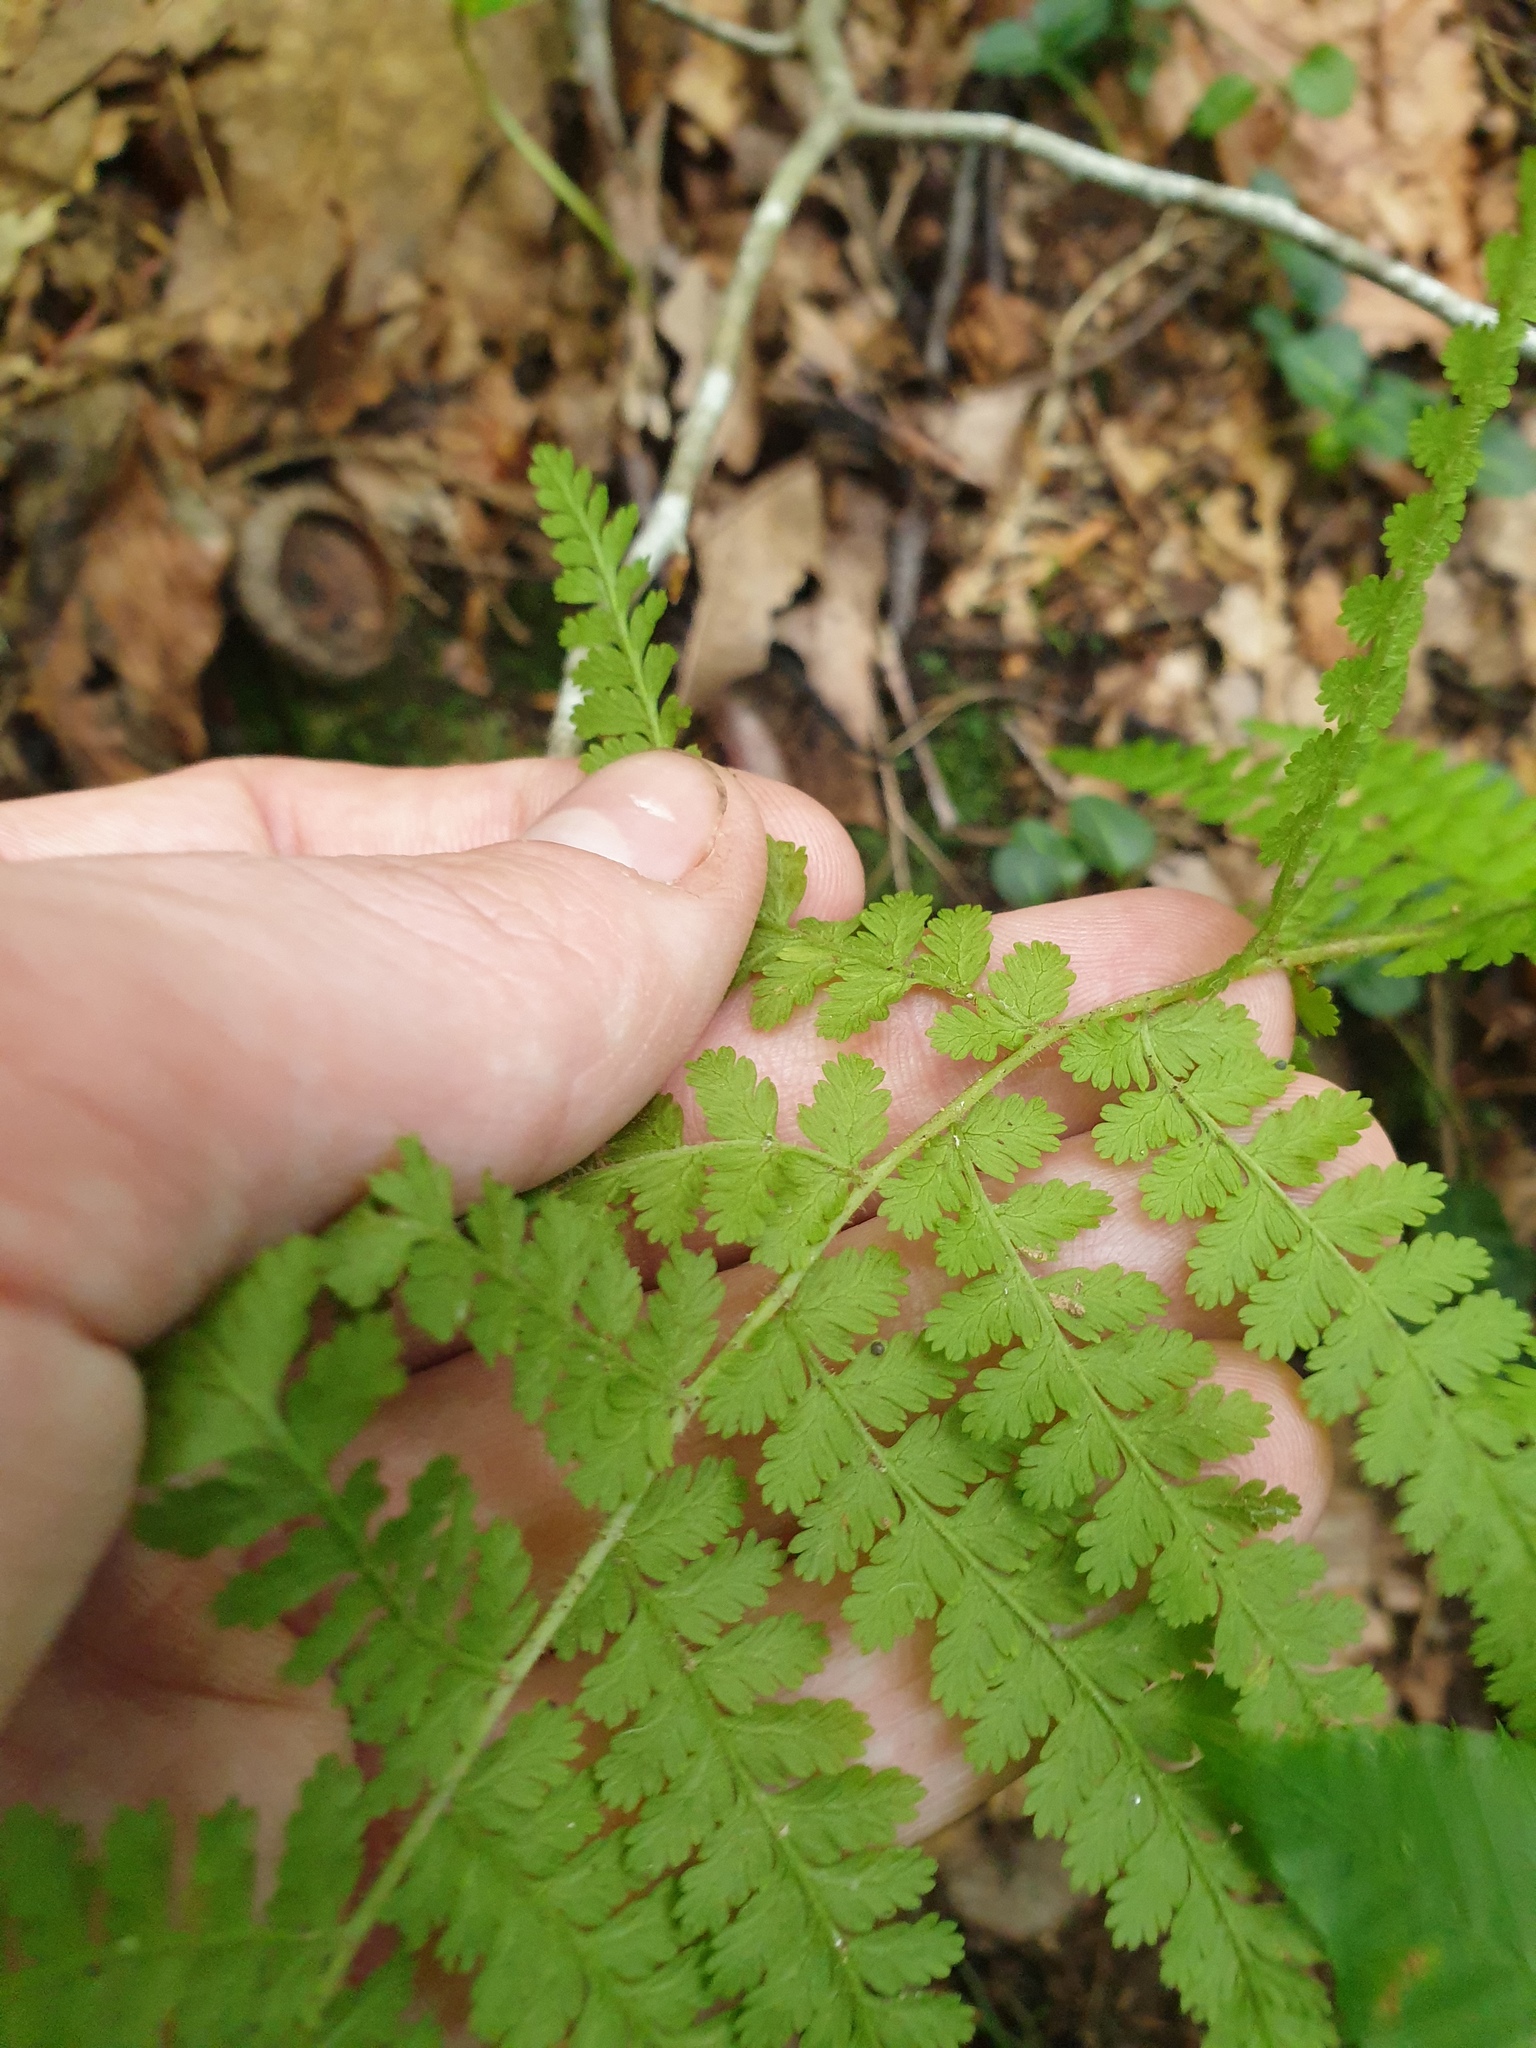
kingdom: Plantae
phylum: Tracheophyta
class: Polypodiopsida
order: Polypodiales
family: Dennstaedtiaceae
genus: Sitobolium
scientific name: Sitobolium punctilobum
